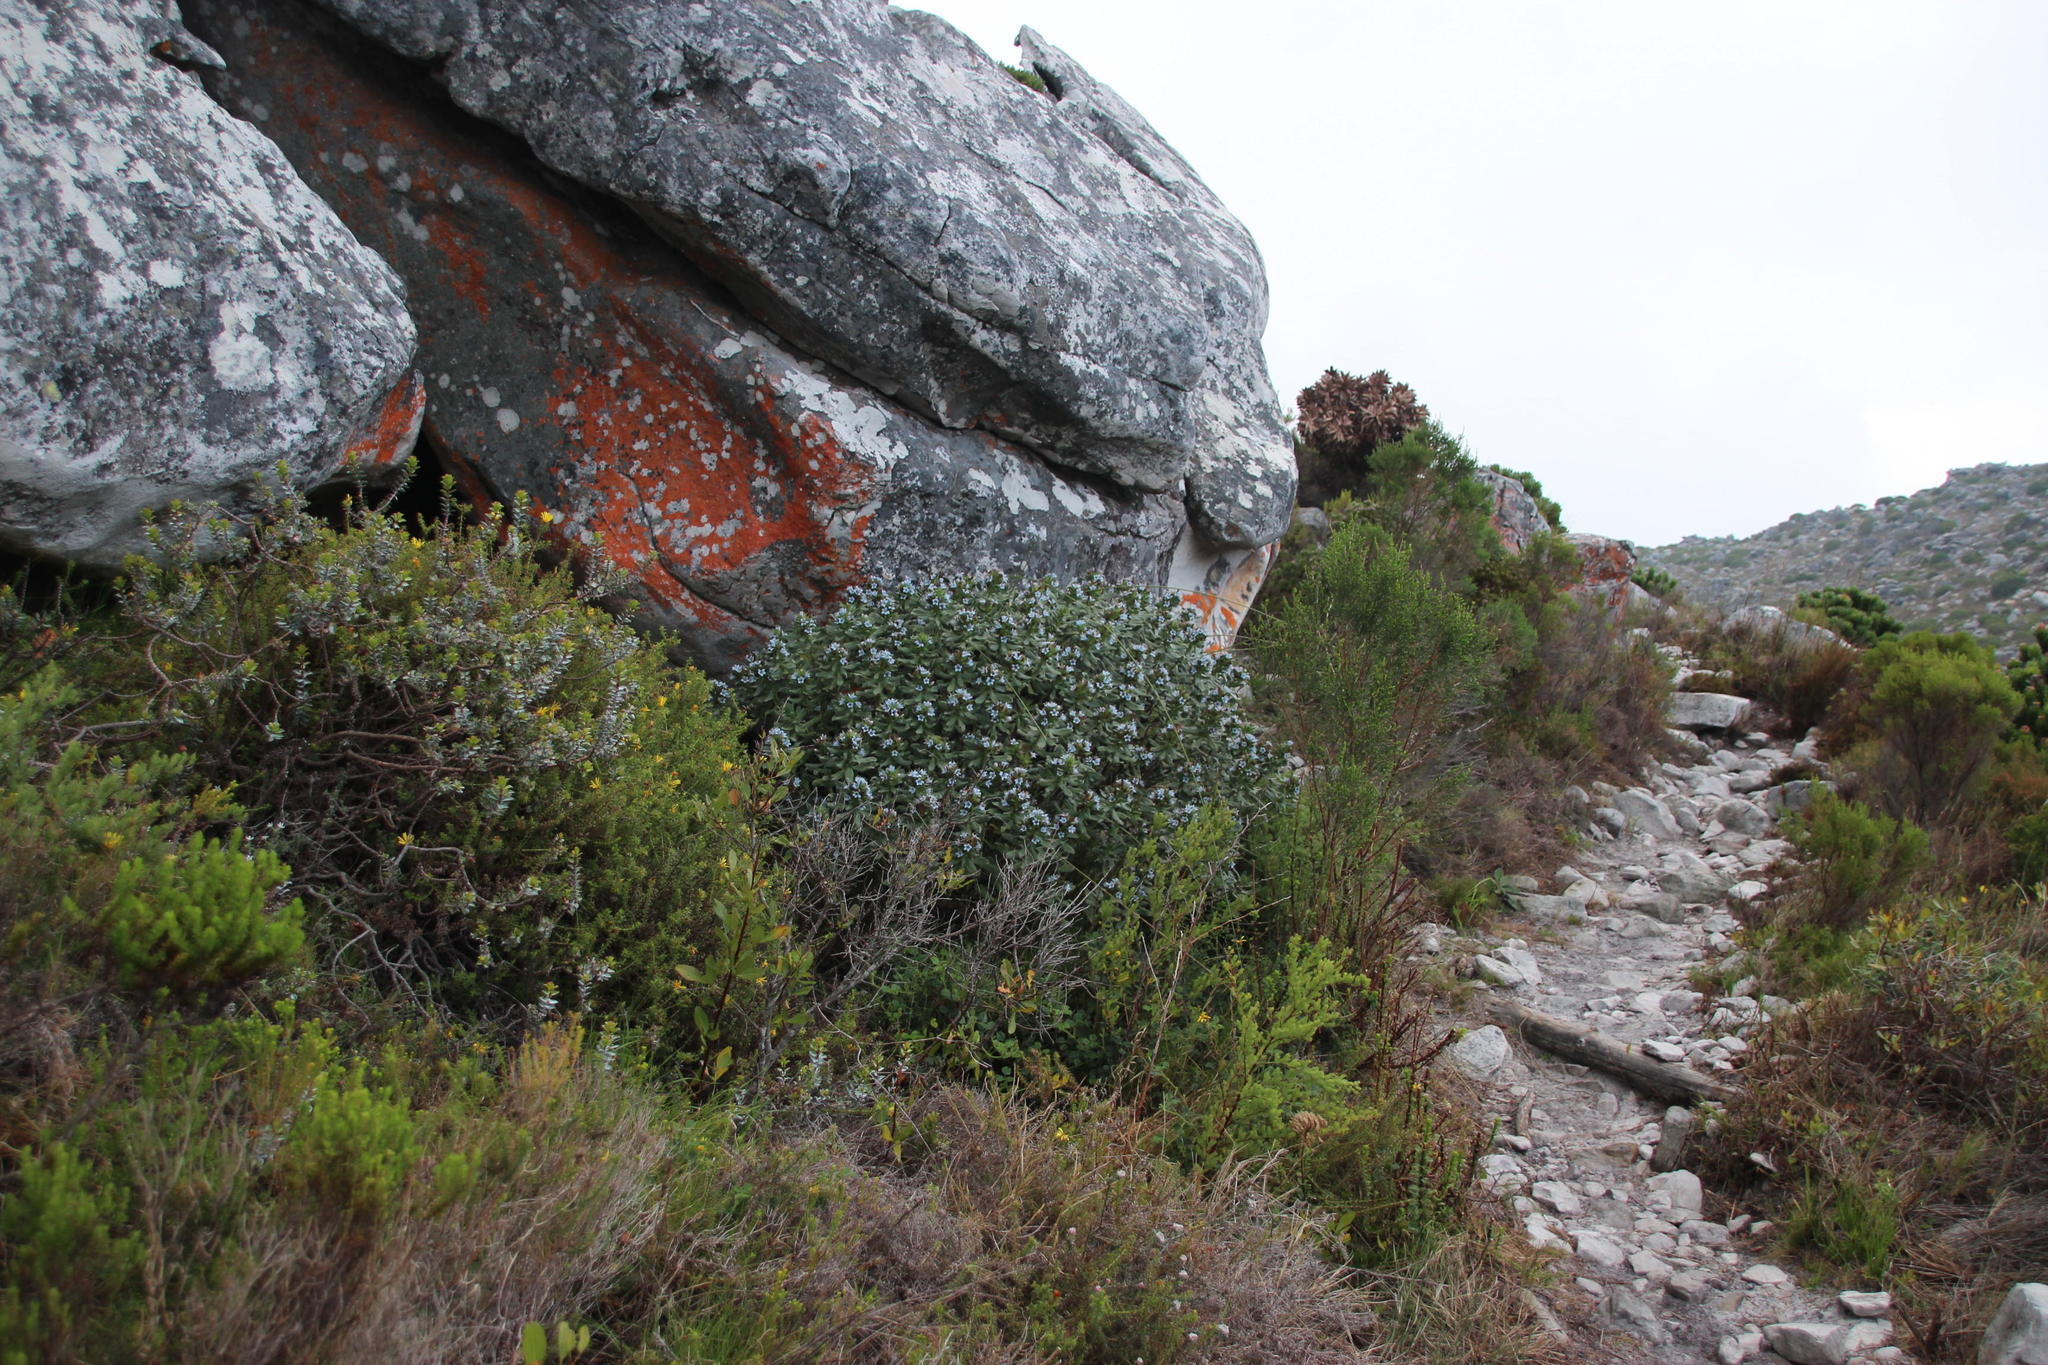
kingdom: Plantae
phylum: Tracheophyta
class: Magnoliopsida
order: Boraginales
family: Boraginaceae
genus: Lobostemon
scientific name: Lobostemon montanus
